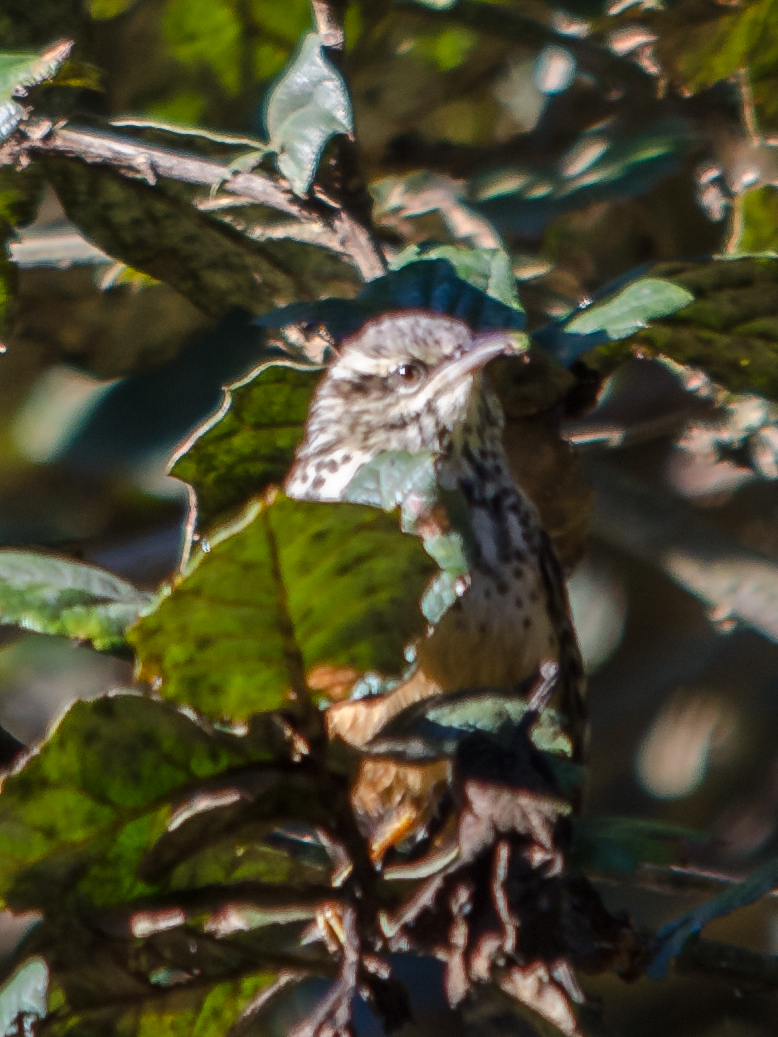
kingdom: Animalia
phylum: Chordata
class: Aves
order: Passeriformes
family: Troglodytidae
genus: Campylorhynchus
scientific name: Campylorhynchus zonatus
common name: Band-backed wren
